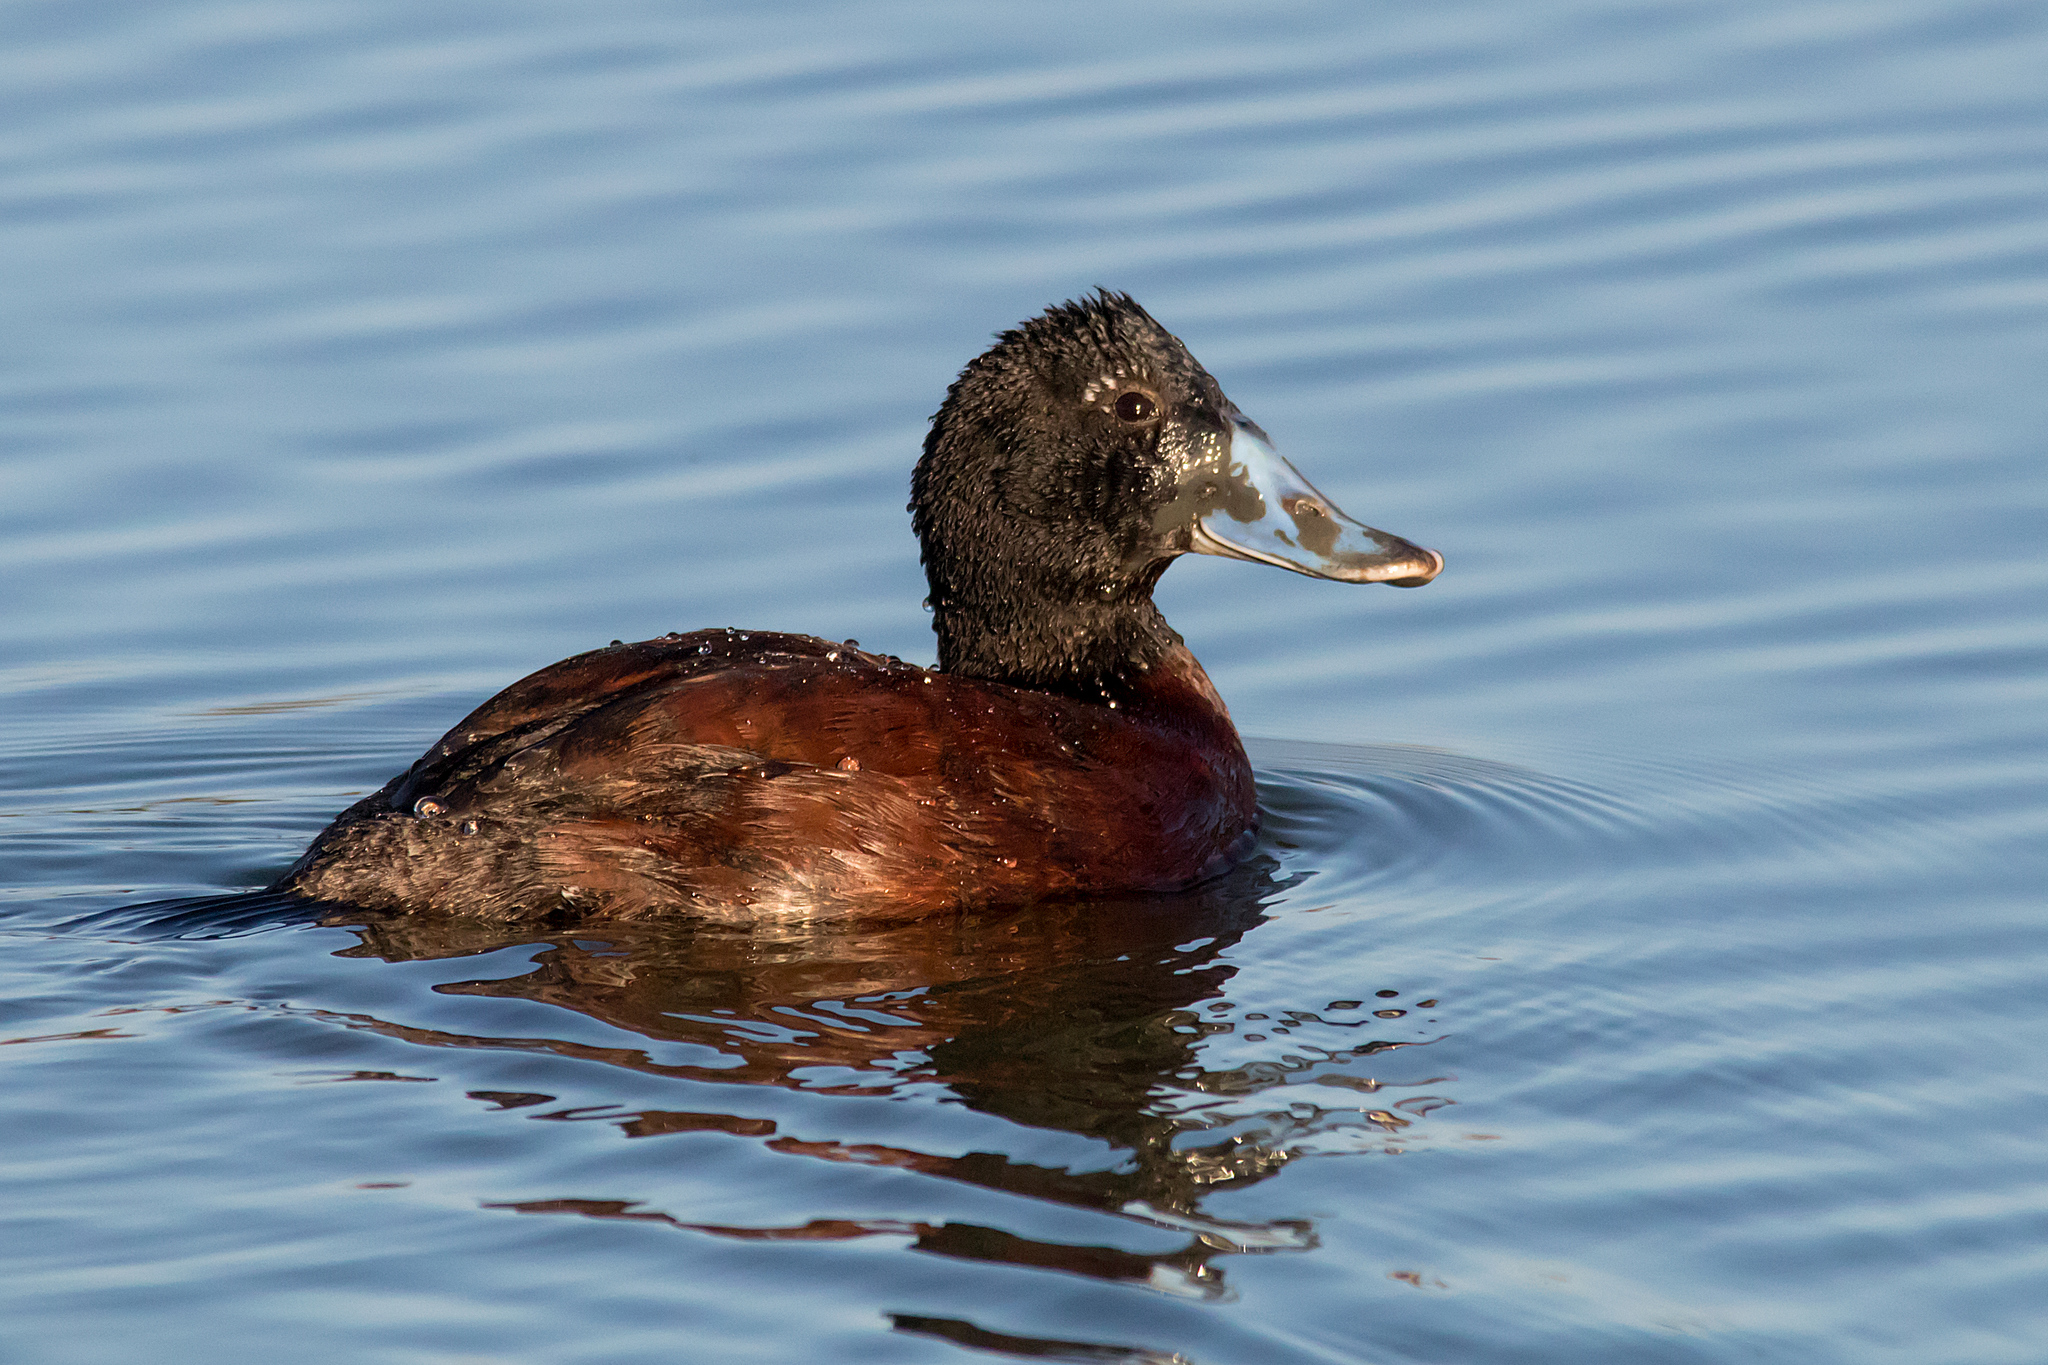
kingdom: Animalia
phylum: Chordata
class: Aves
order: Anseriformes
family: Anatidae
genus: Oxyura
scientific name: Oxyura australis
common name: Blue-billed duck
